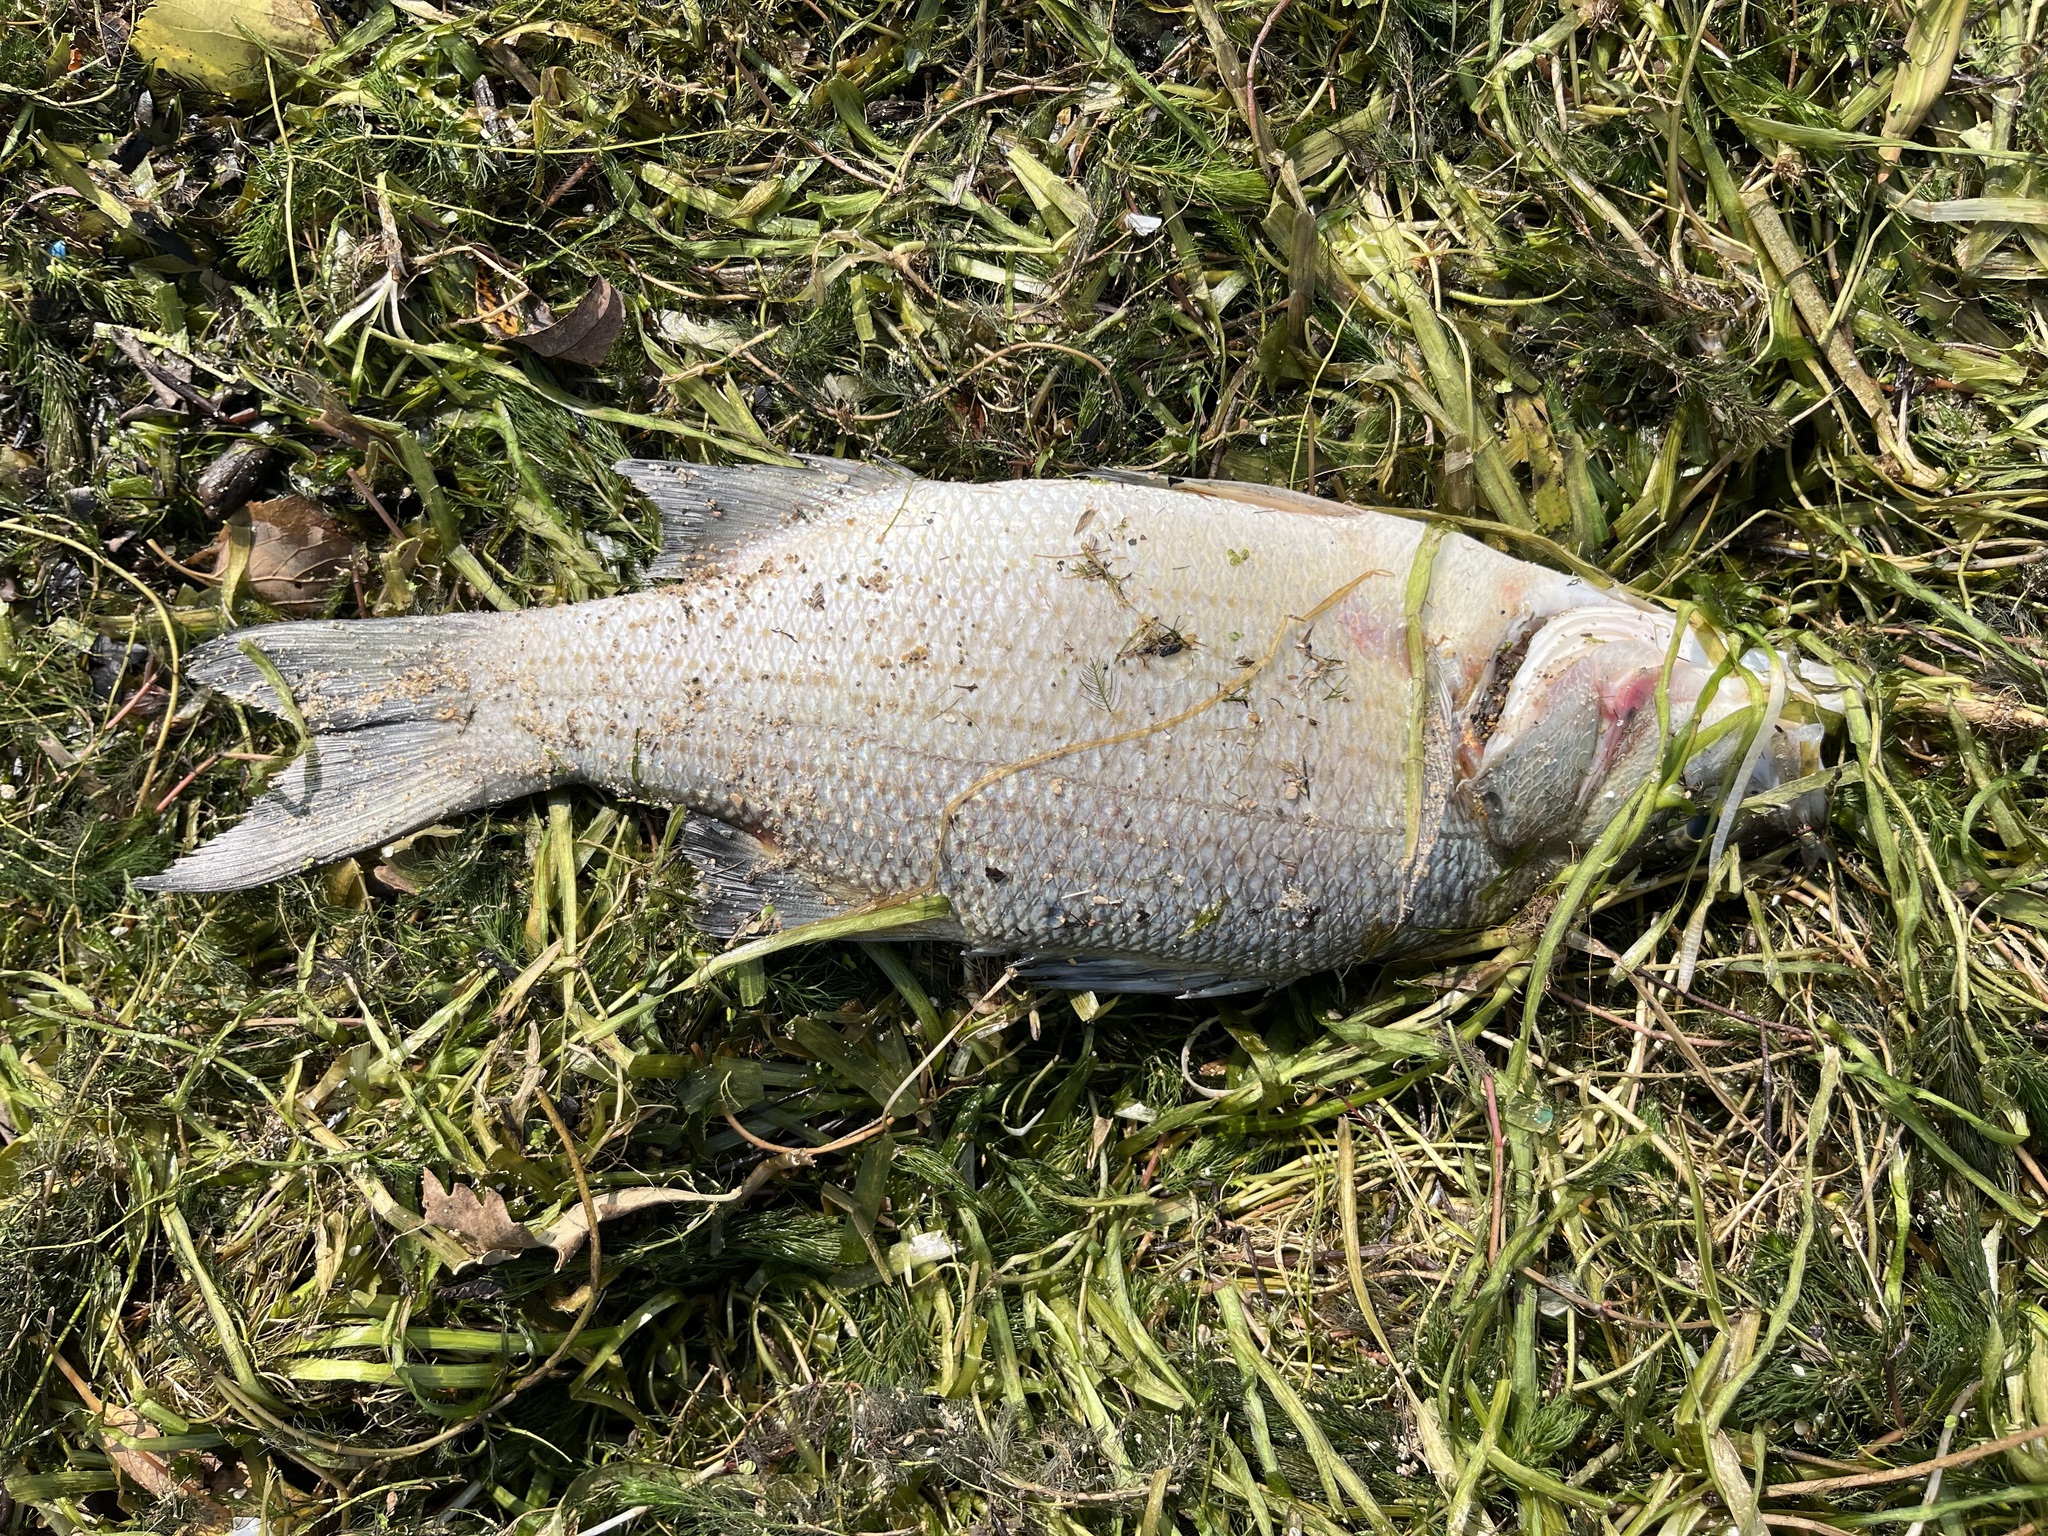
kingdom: Animalia
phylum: Chordata
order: Perciformes
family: Moronidae
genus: Morone
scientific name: Morone chrysops
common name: White bass
